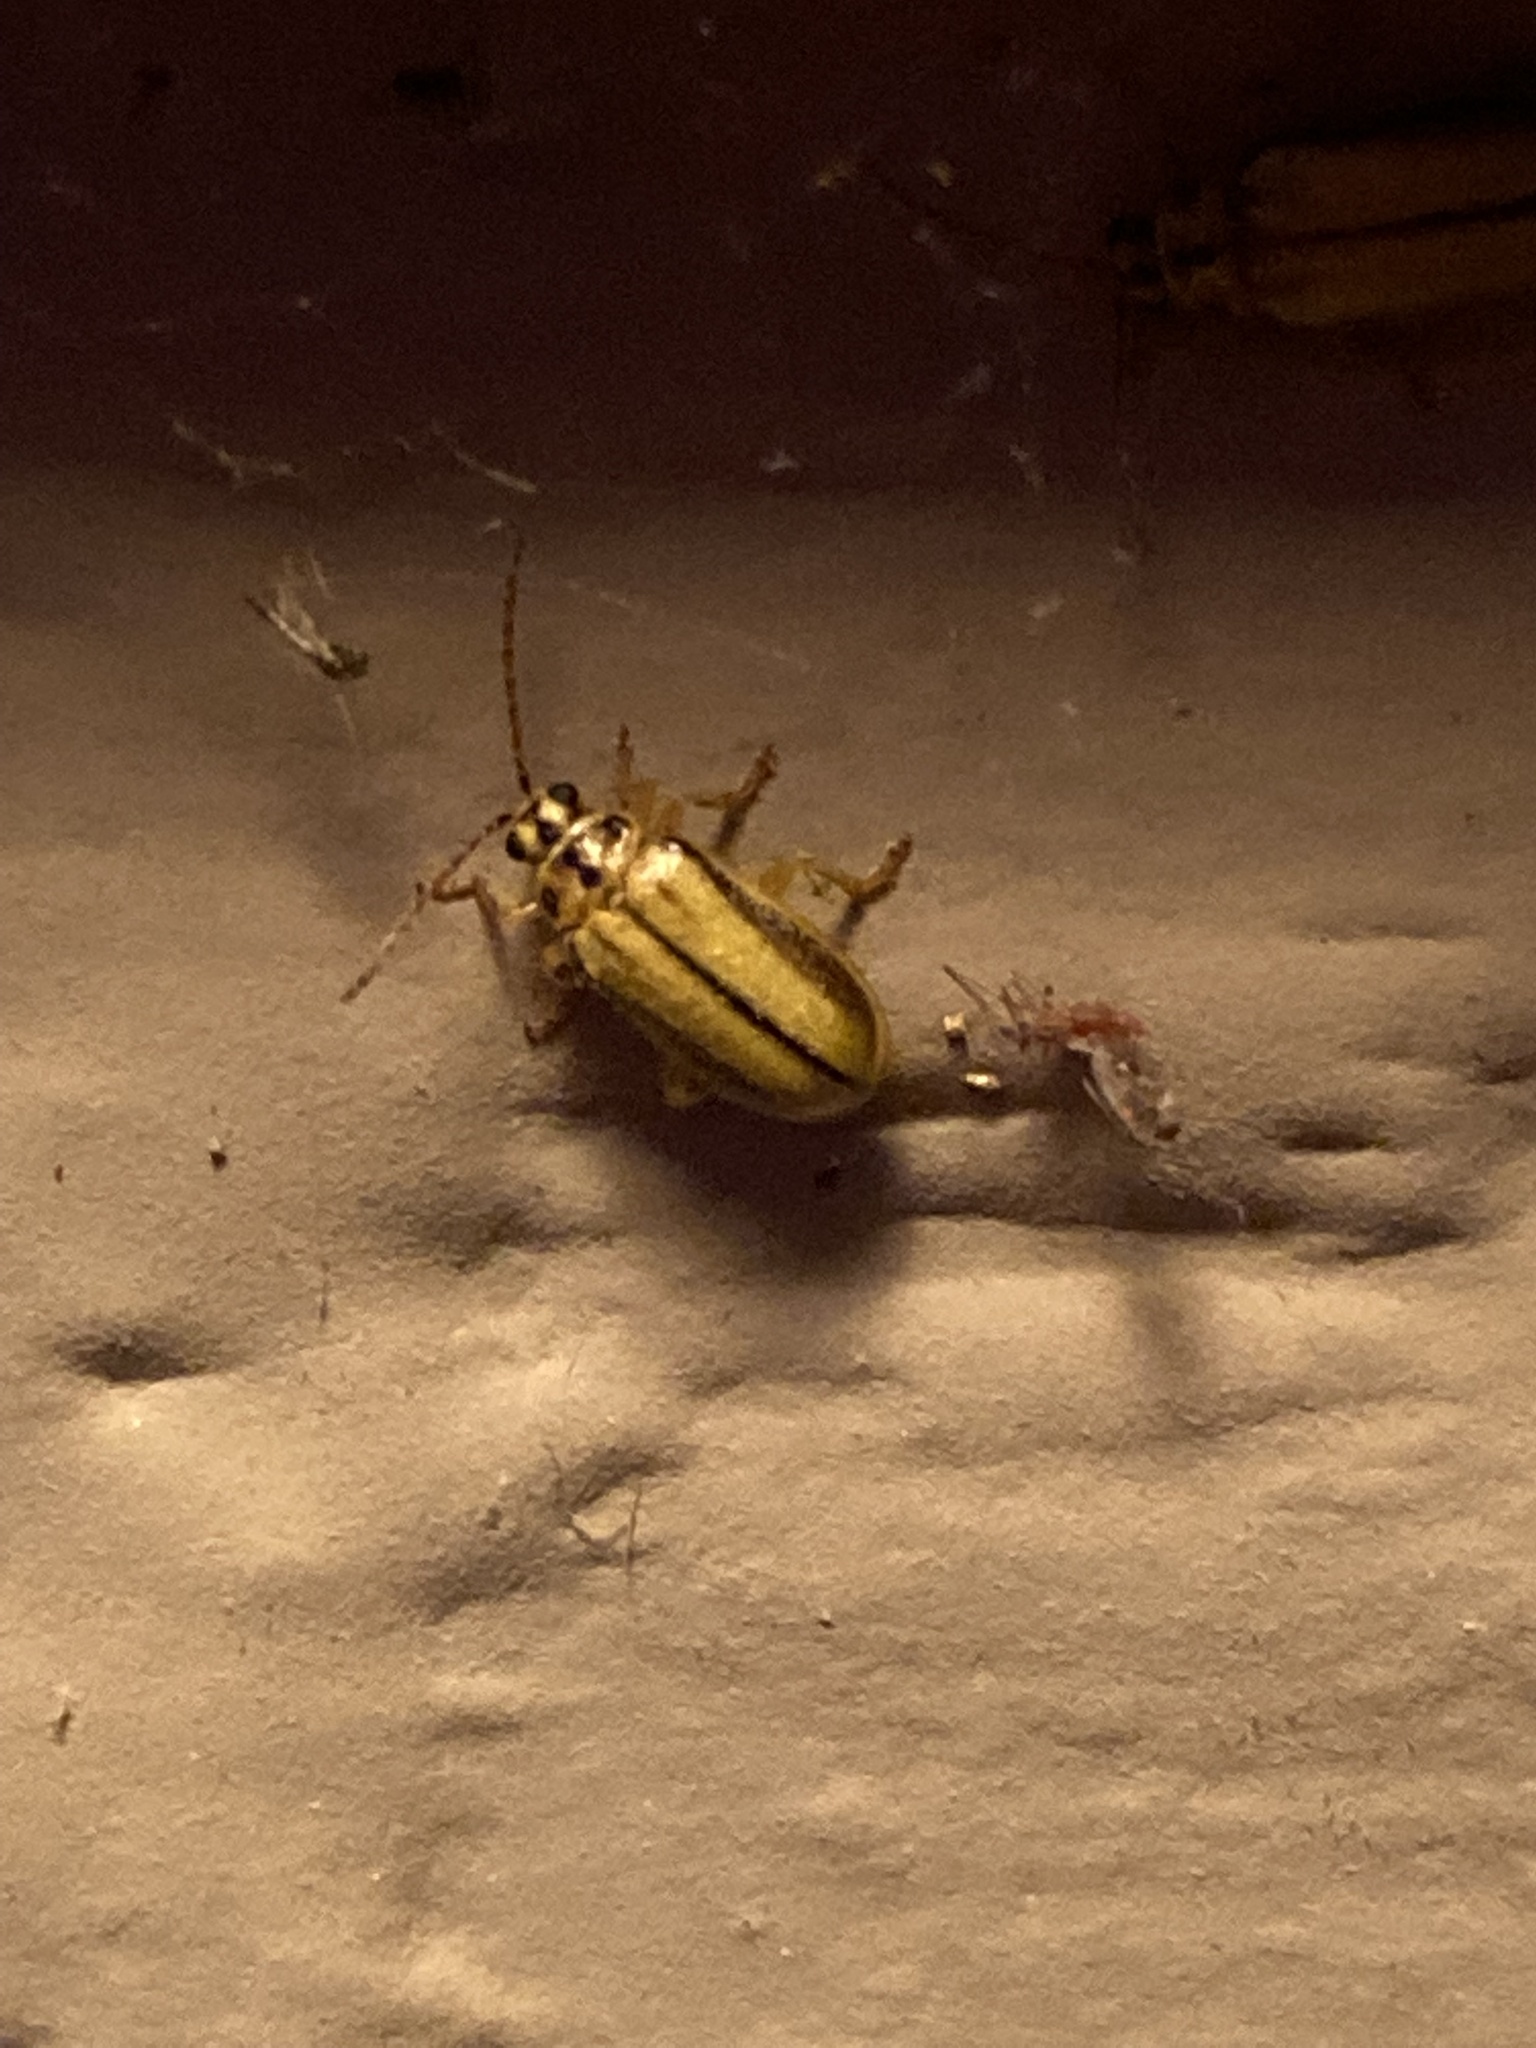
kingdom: Animalia
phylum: Arthropoda
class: Insecta
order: Coleoptera
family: Chrysomelidae
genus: Xanthogaleruca
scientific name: Xanthogaleruca luteola
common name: Elm leaf beetle
